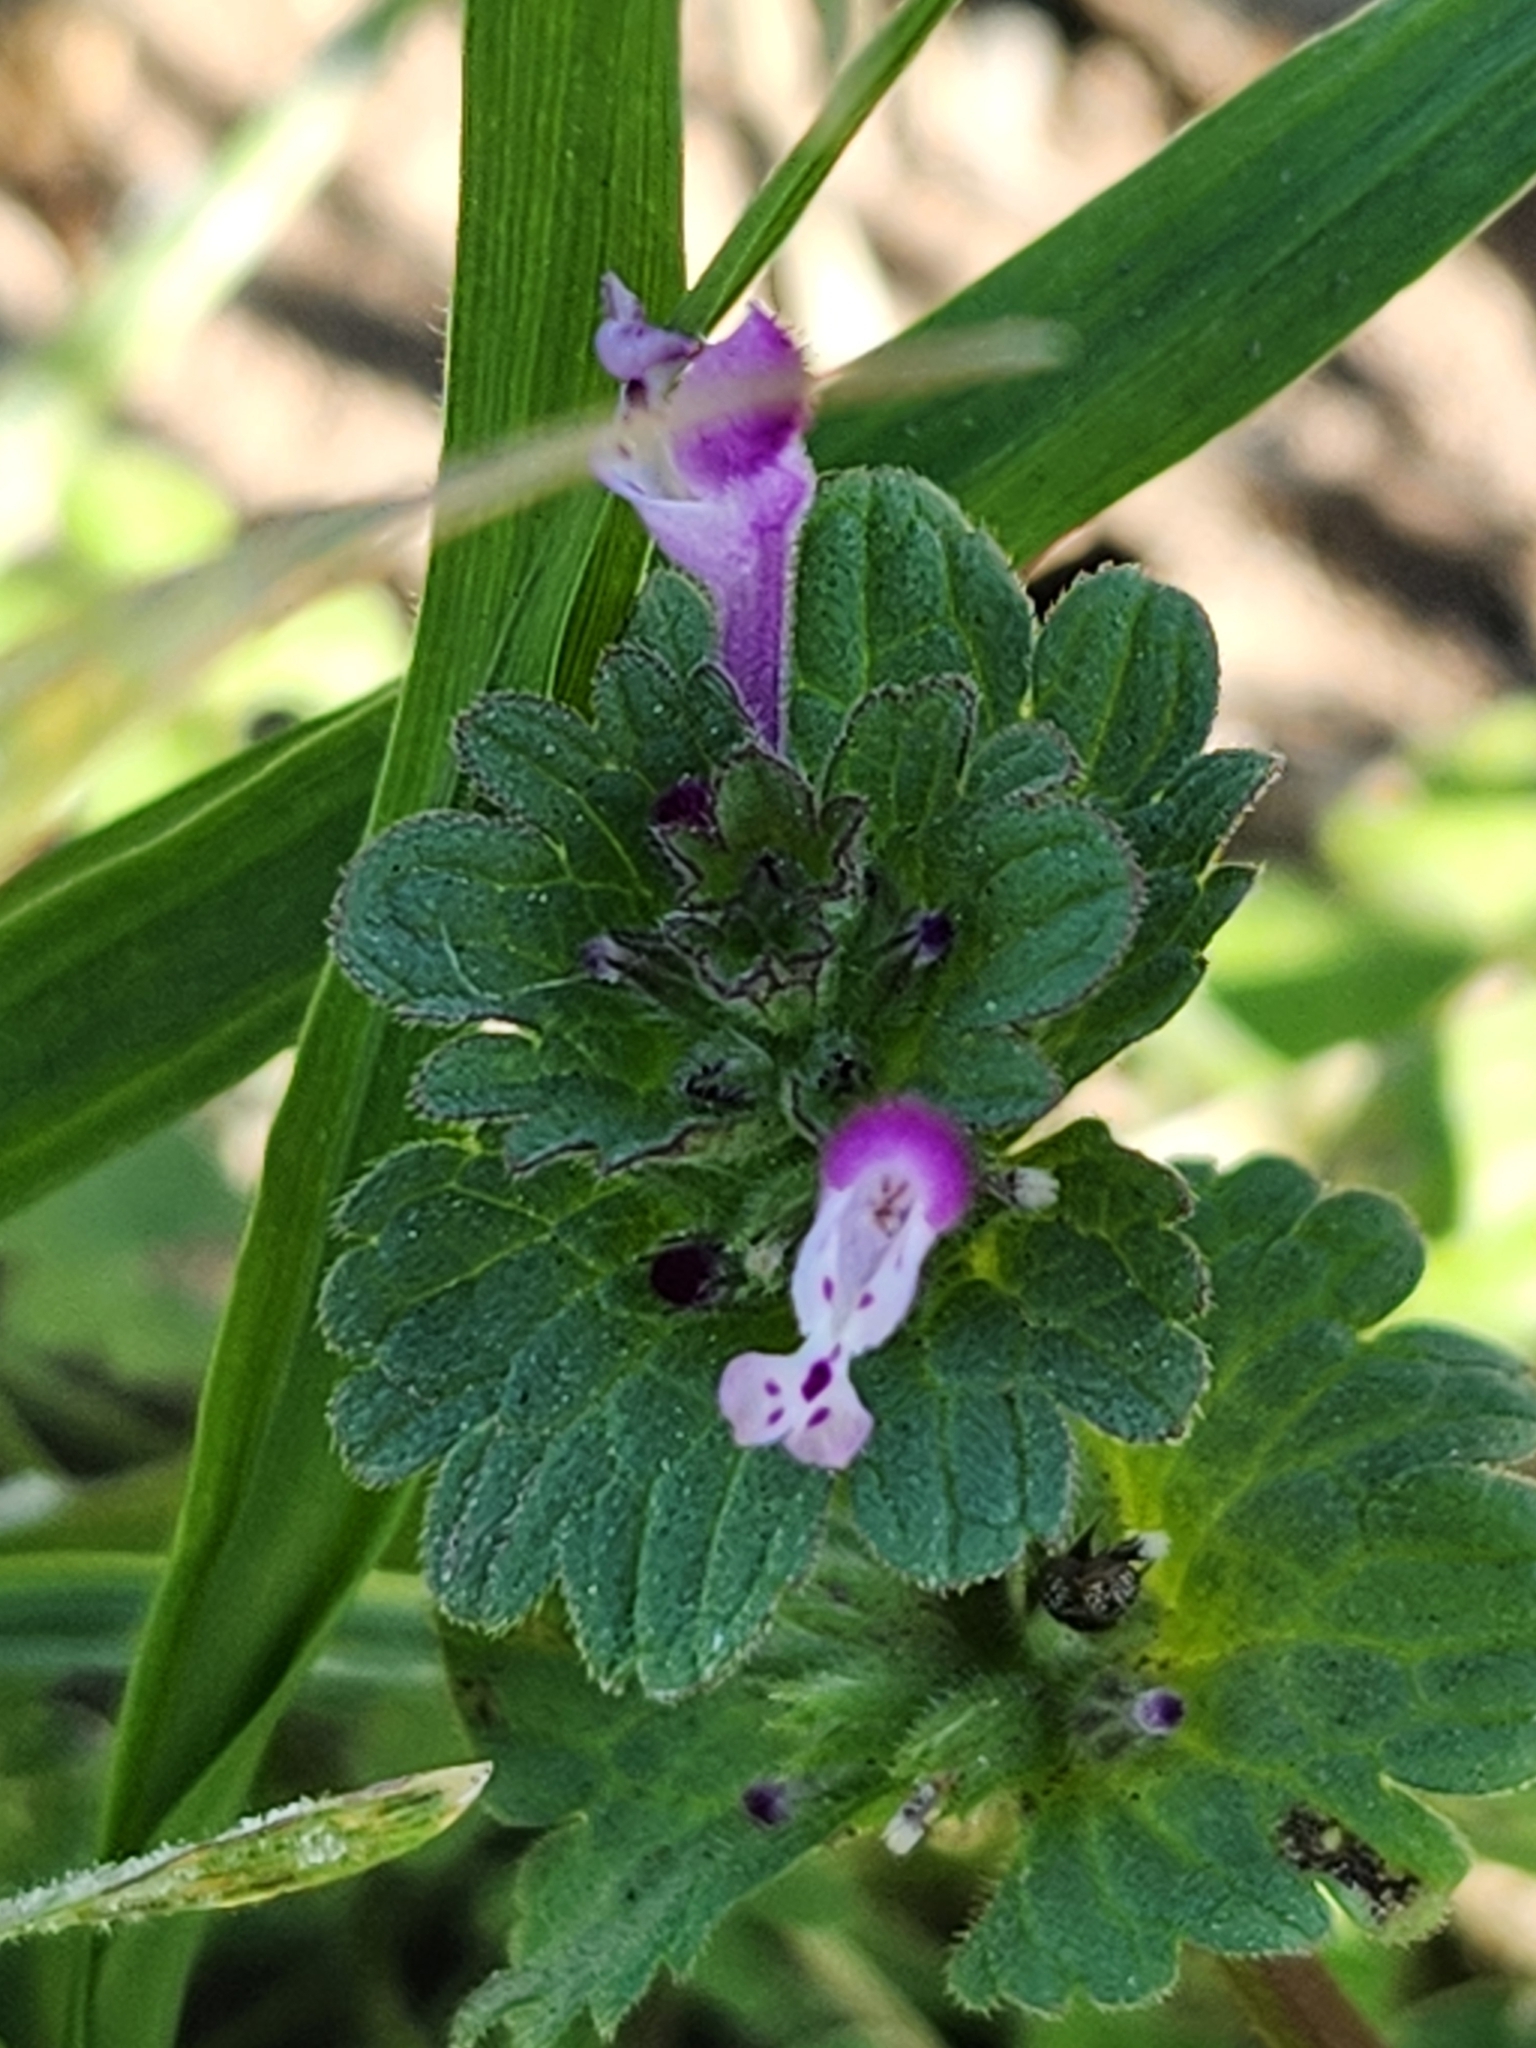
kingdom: Plantae
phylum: Tracheophyta
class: Magnoliopsida
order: Lamiales
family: Lamiaceae
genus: Lamium
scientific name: Lamium amplexicaule
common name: Henbit dead-nettle
